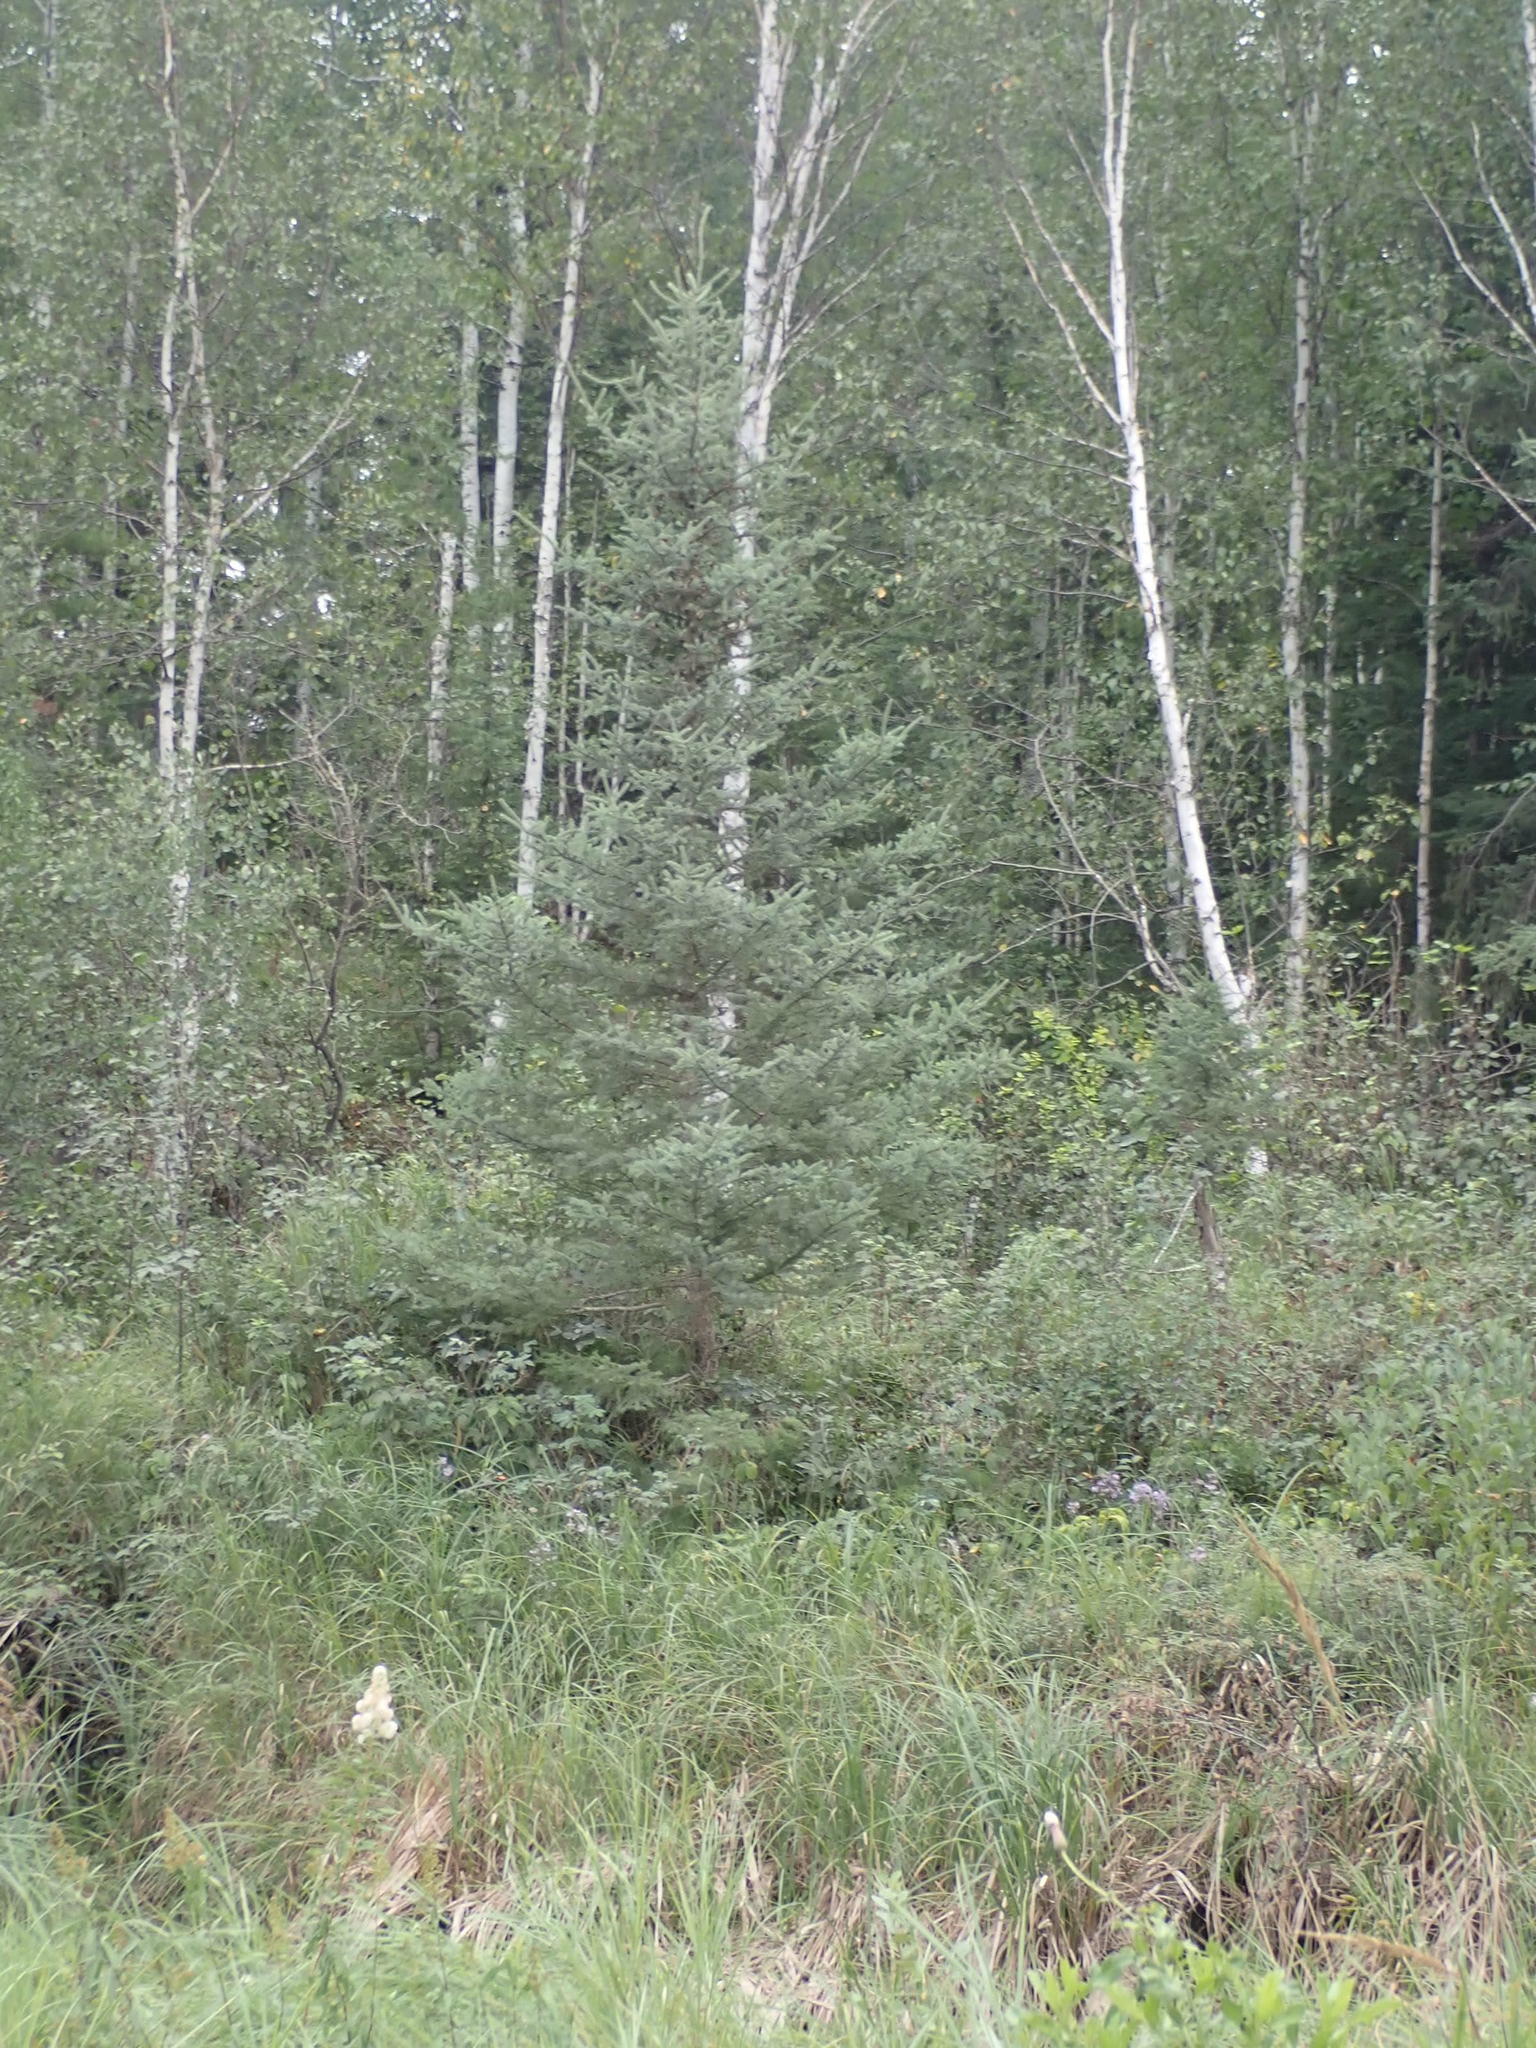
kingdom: Plantae
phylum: Tracheophyta
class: Pinopsida
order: Pinales
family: Pinaceae
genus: Picea
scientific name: Picea glauca
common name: White spruce
